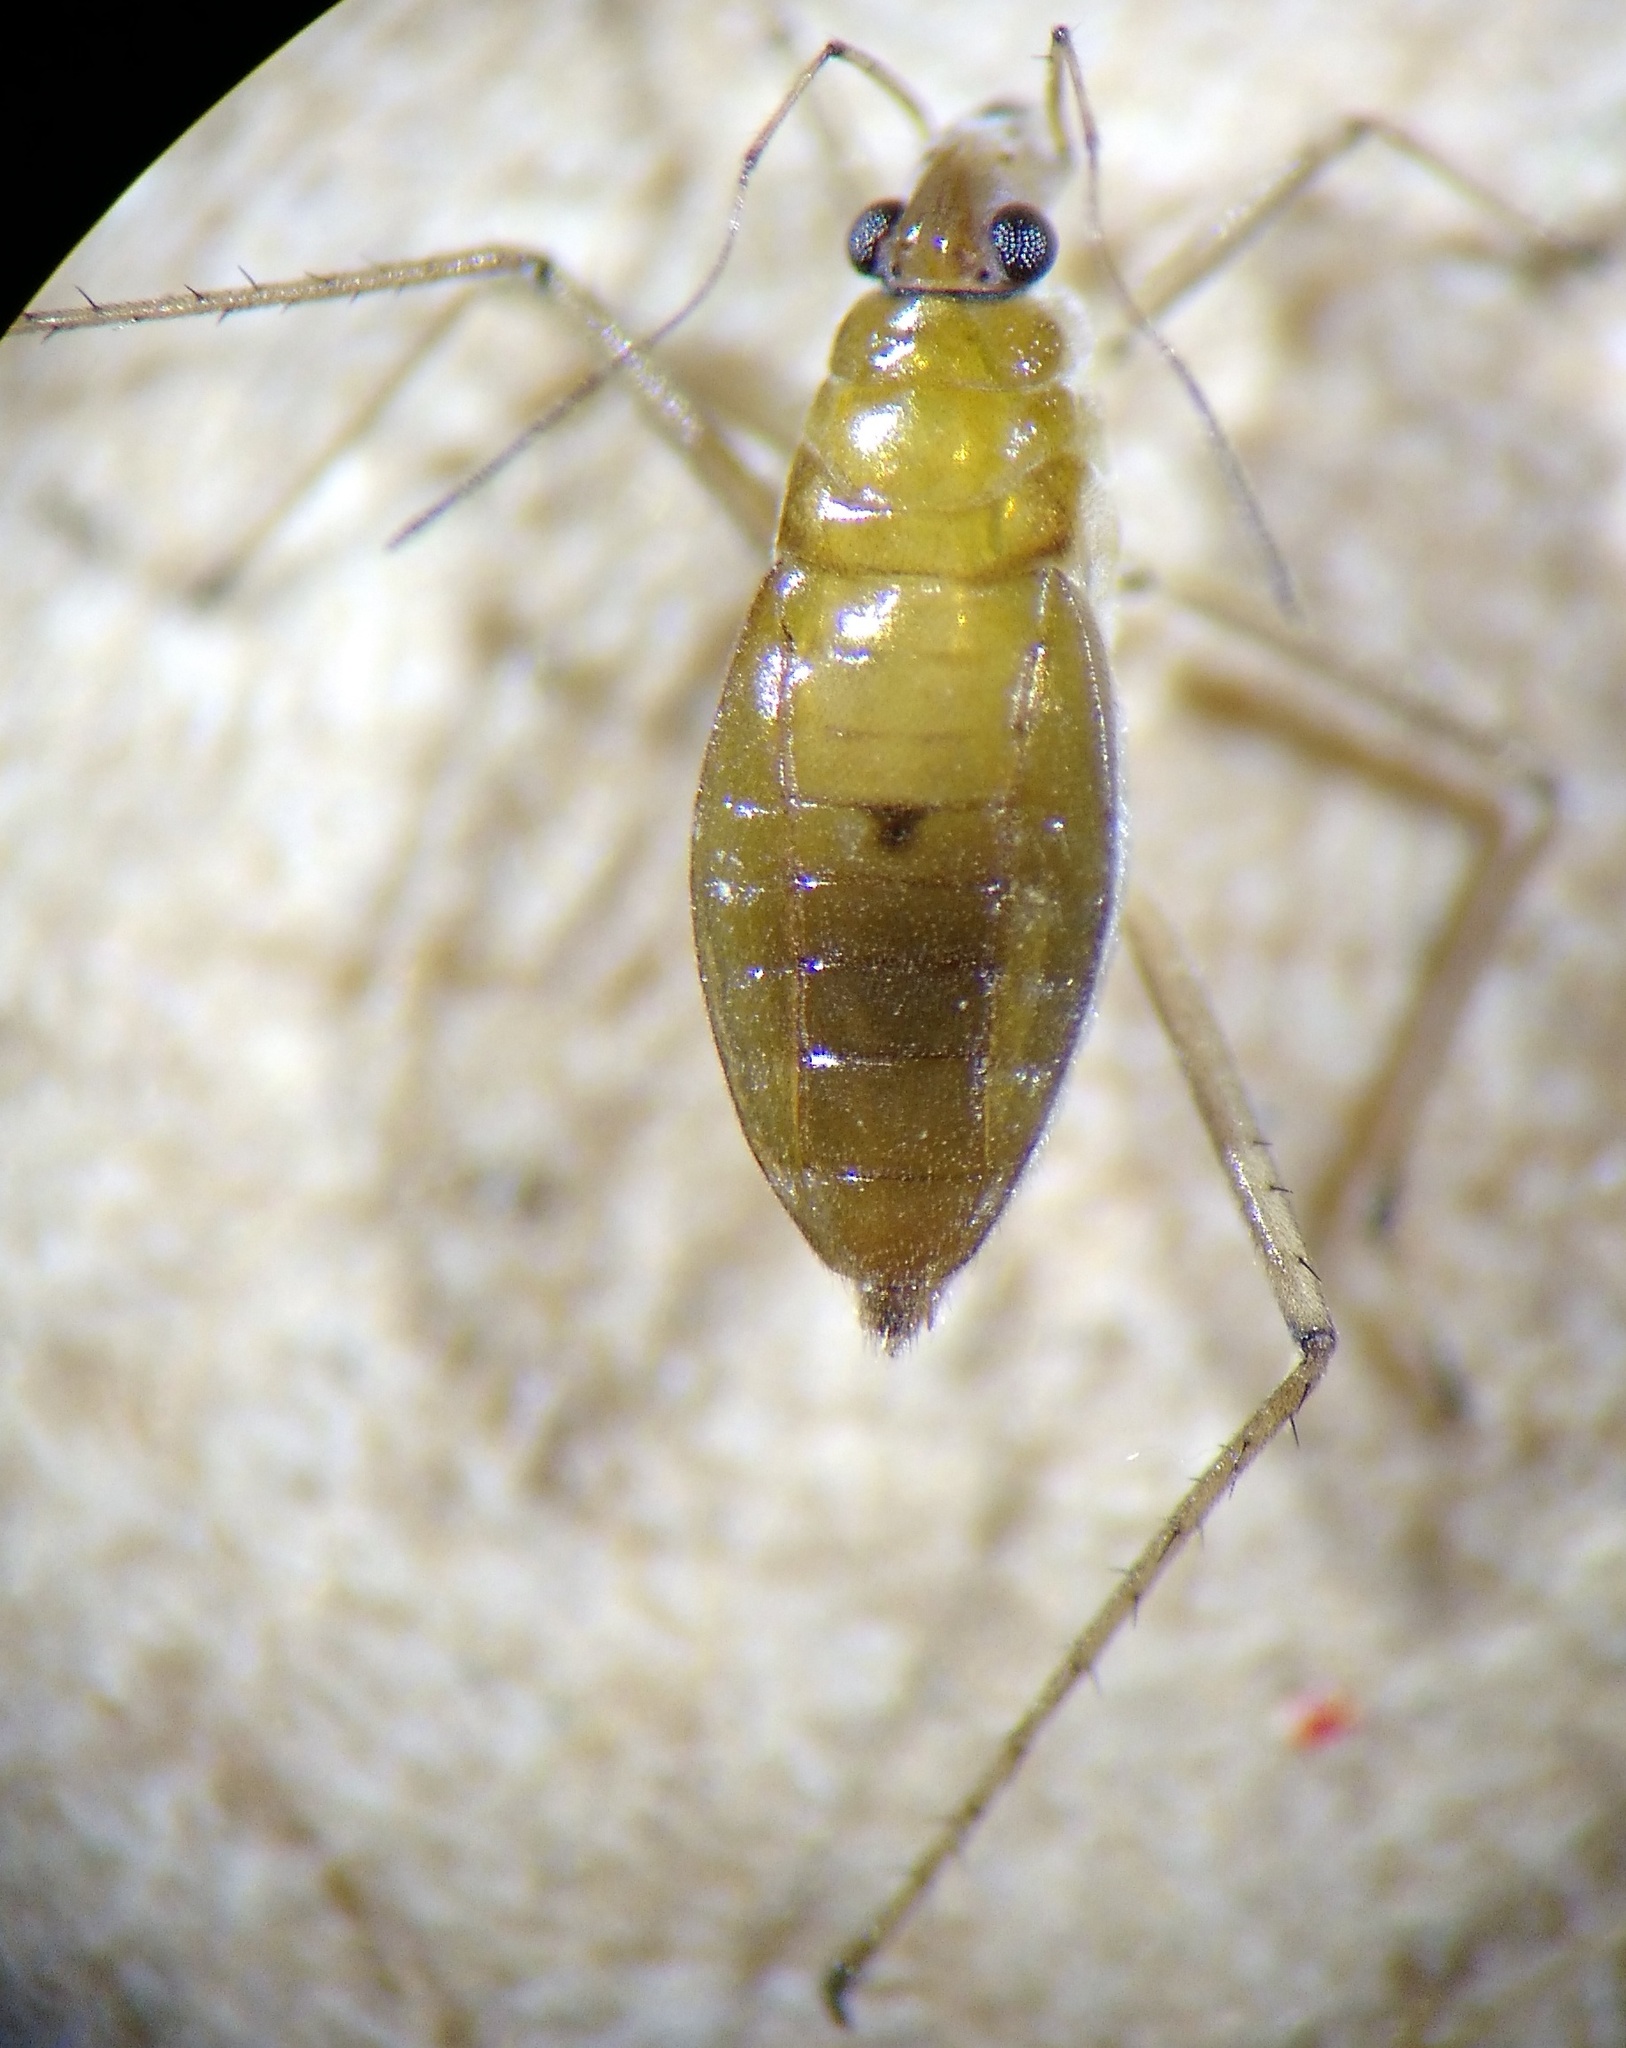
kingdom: Animalia
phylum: Arthropoda
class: Insecta
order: Hemiptera
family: Mesoveliidae
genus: Mesovelia
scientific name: Mesovelia
